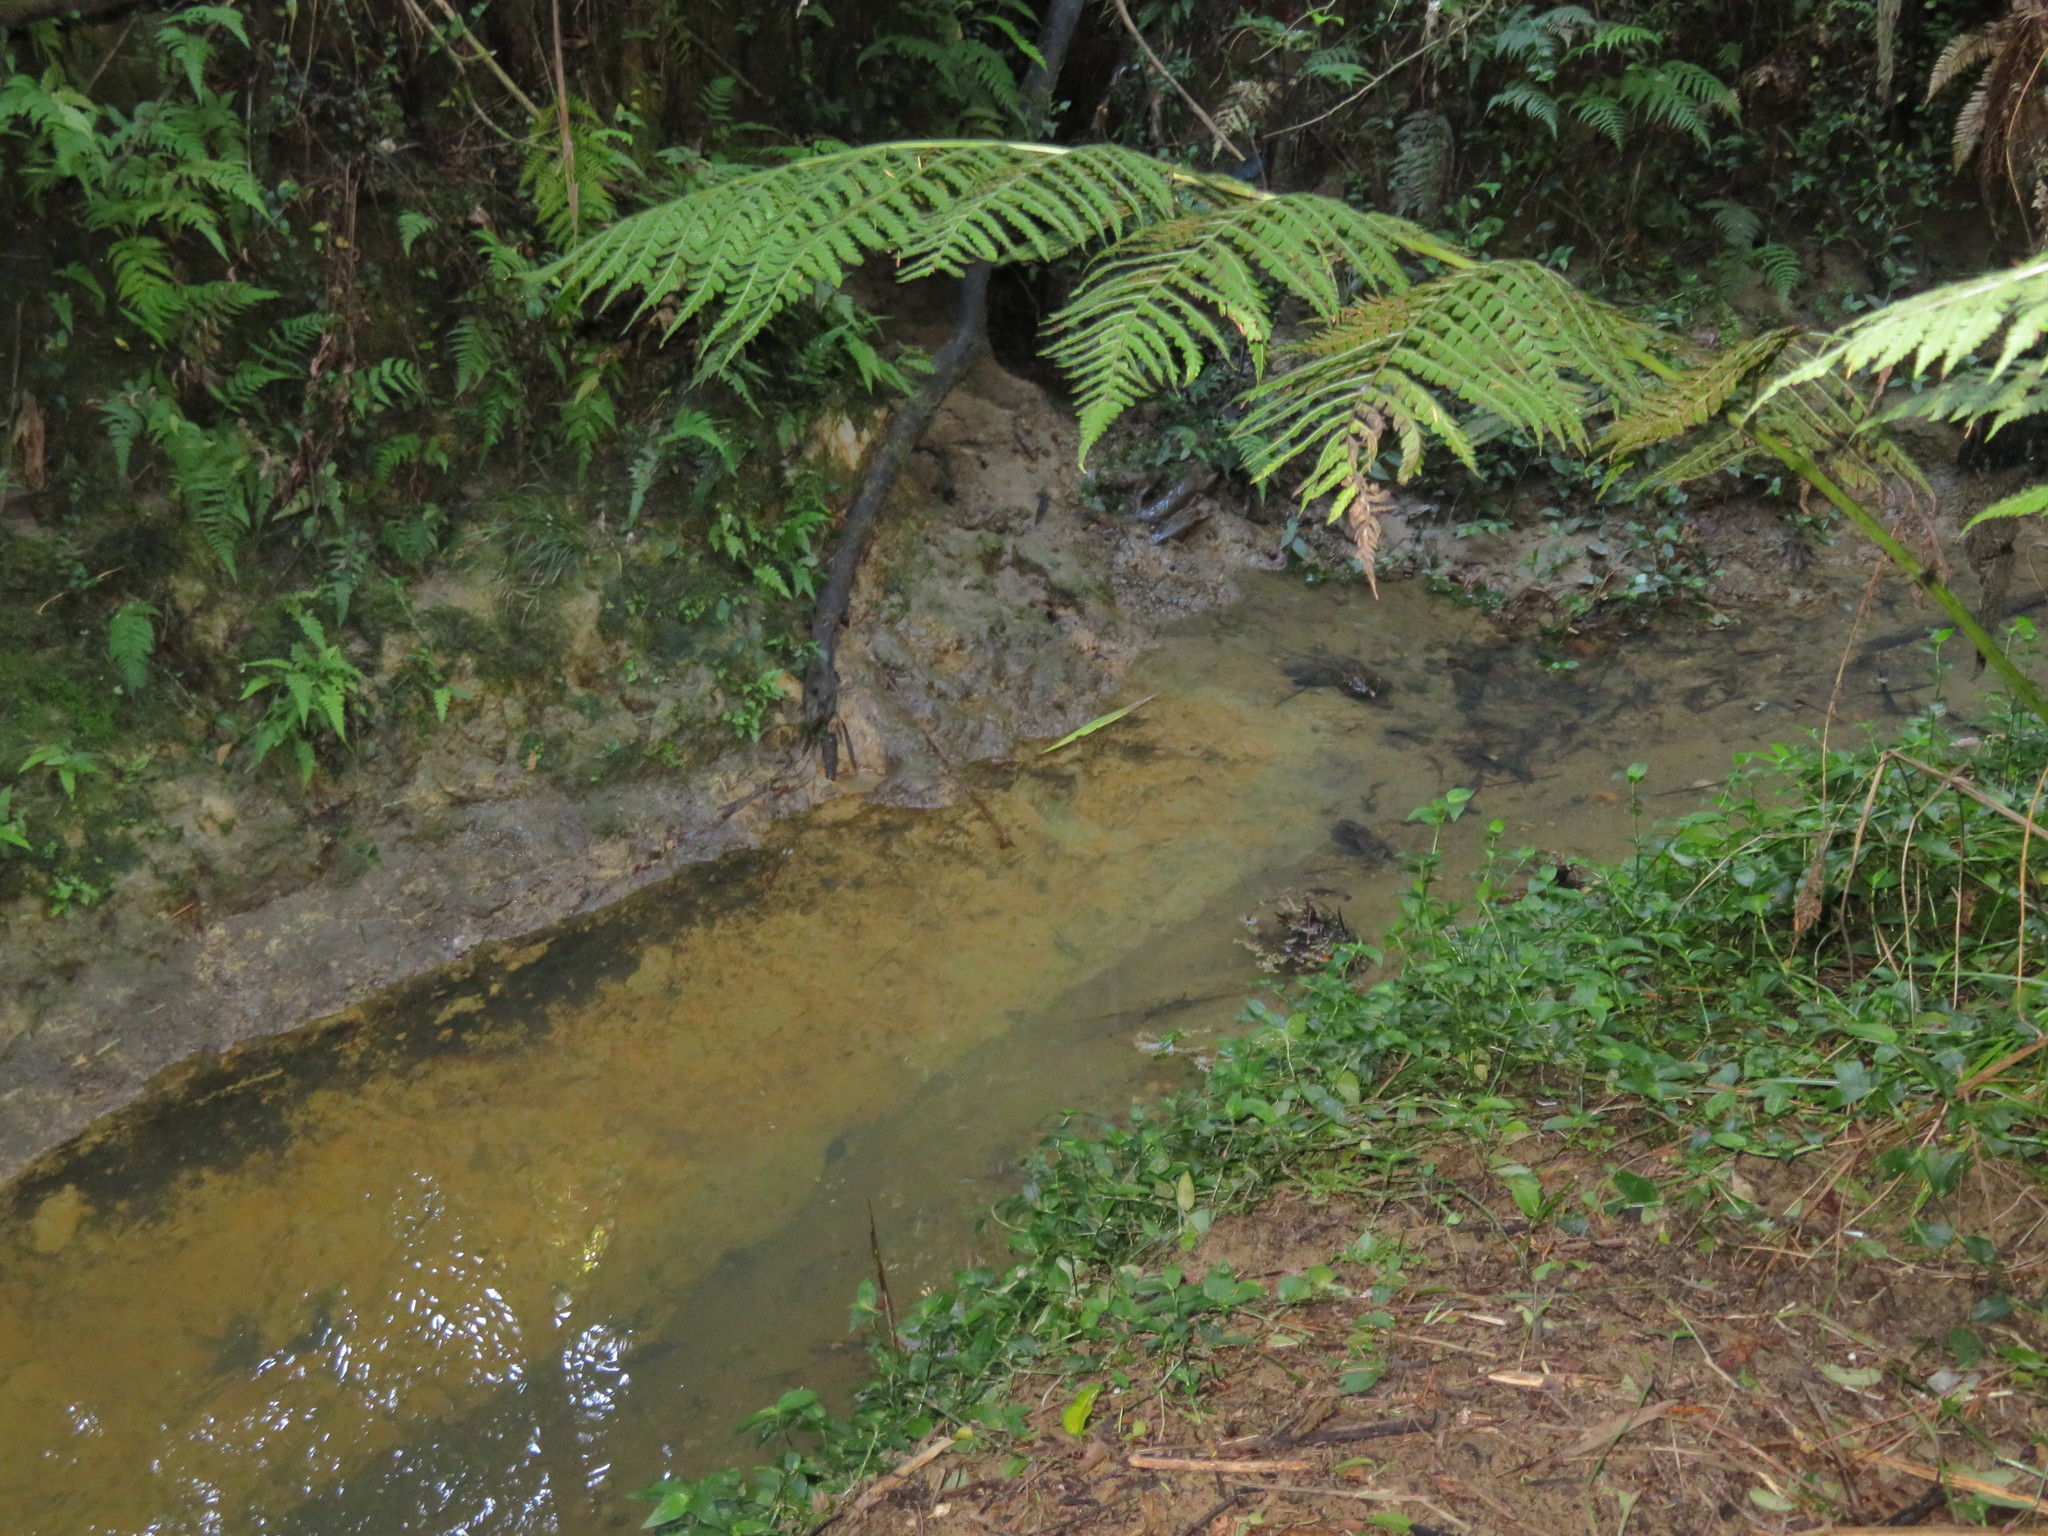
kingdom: Plantae
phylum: Tracheophyta
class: Liliopsida
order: Commelinales
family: Commelinaceae
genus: Tradescantia
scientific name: Tradescantia fluminensis
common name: Wandering-jew
